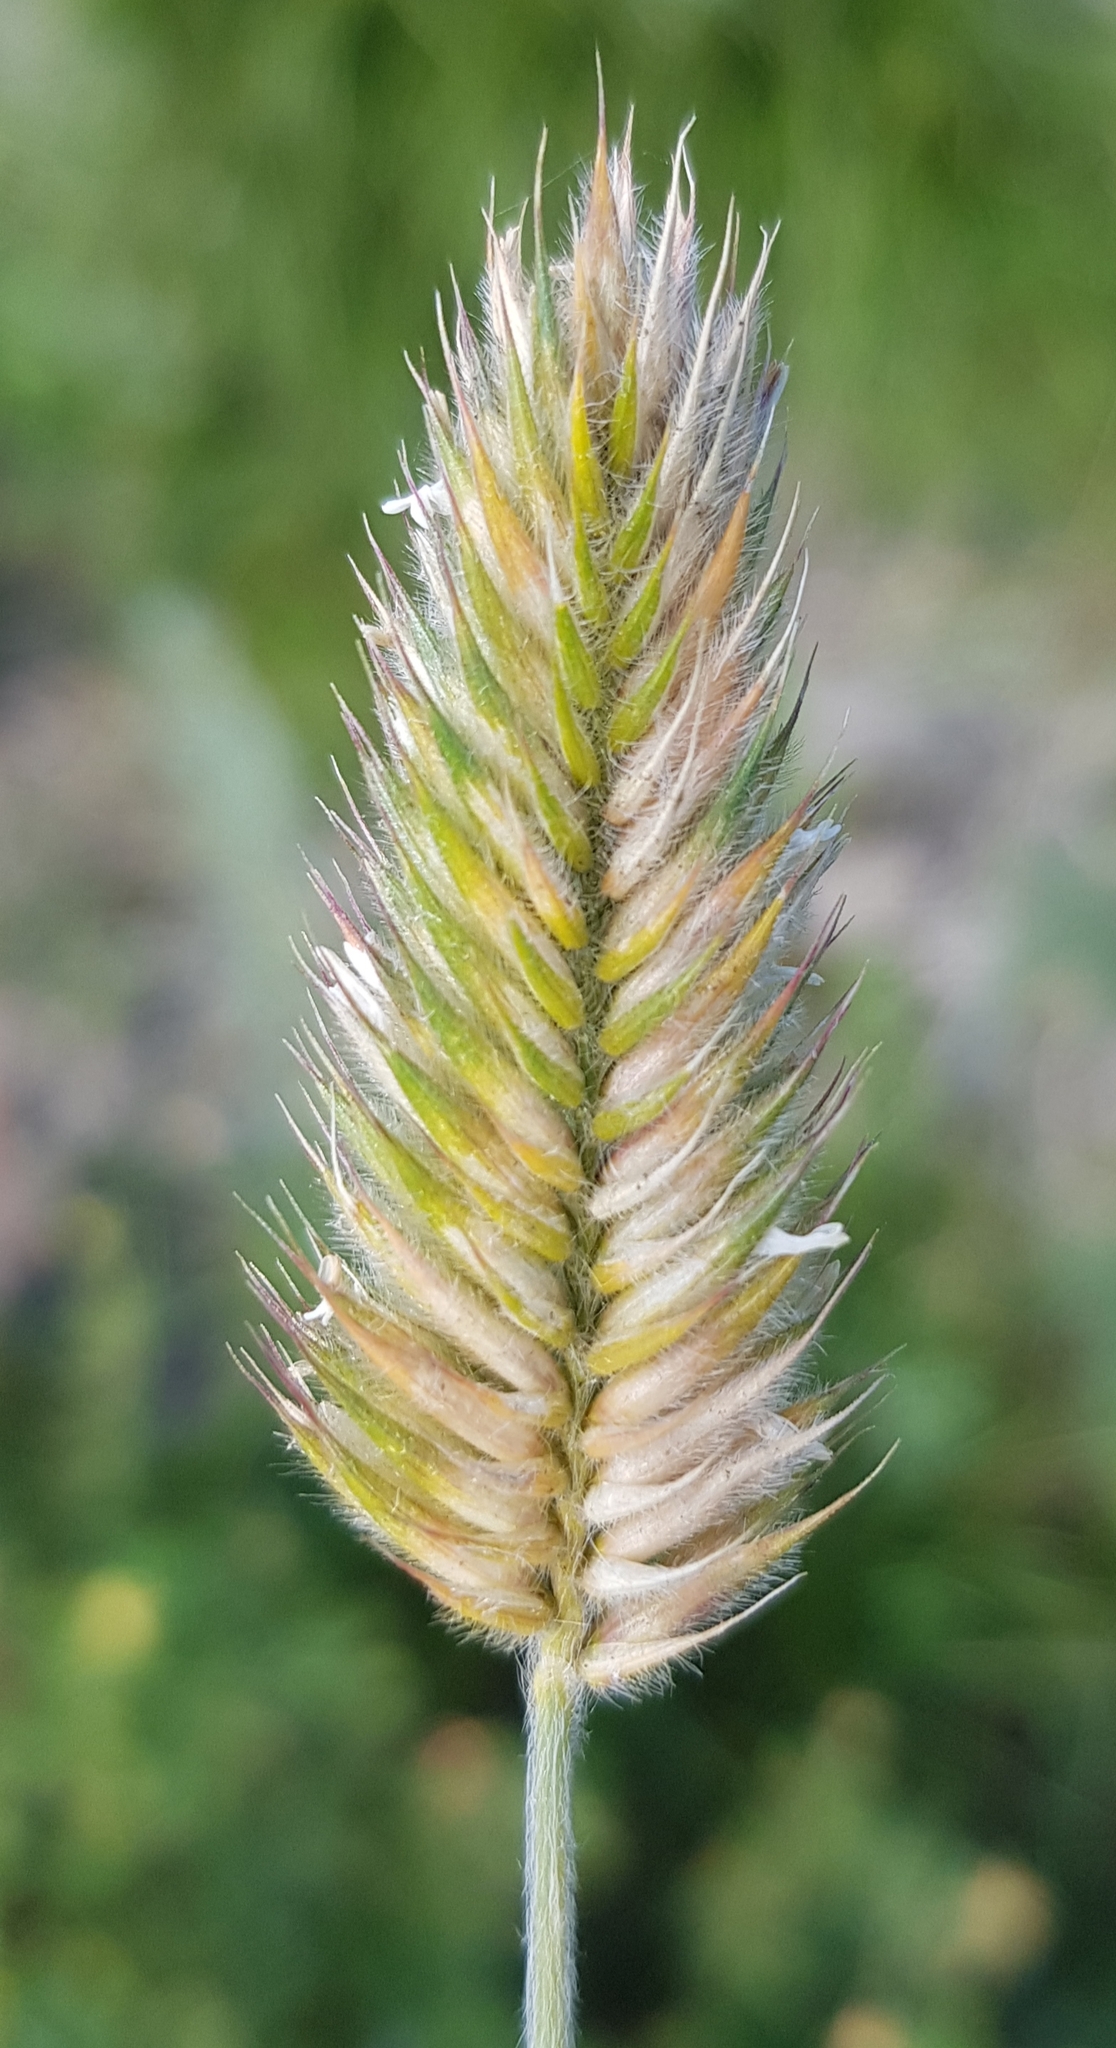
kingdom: Plantae
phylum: Tracheophyta
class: Liliopsida
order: Poales
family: Poaceae
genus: Agropyron
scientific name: Agropyron cristatum
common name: Crested wheatgrass
